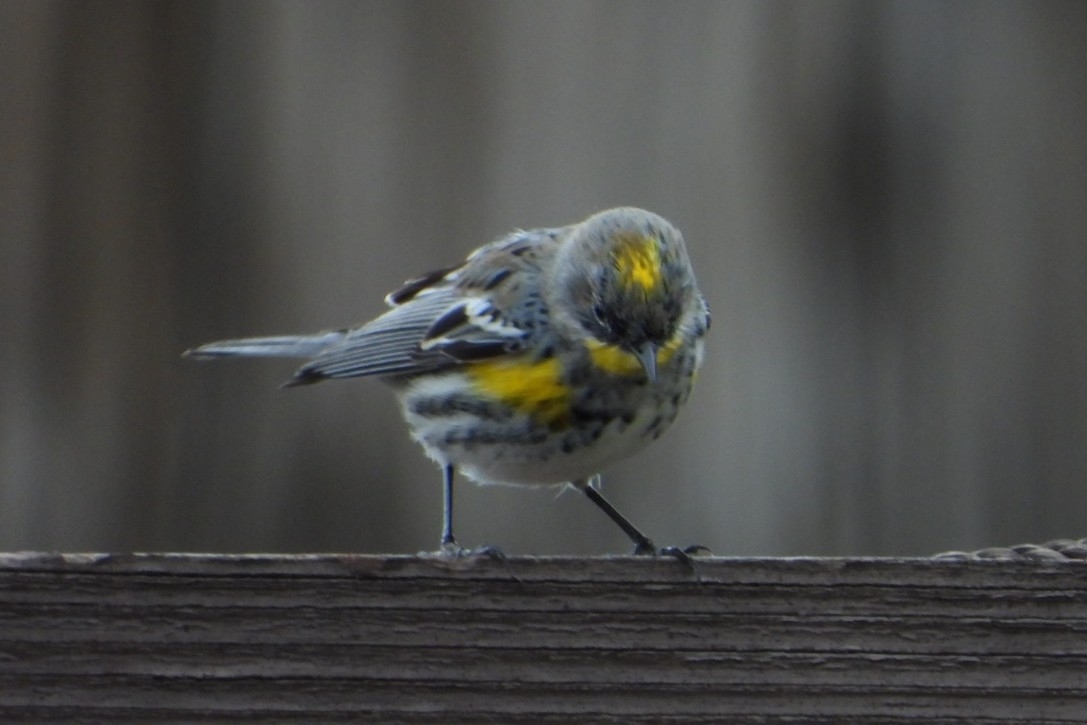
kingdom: Animalia
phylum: Chordata
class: Aves
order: Passeriformes
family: Parulidae
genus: Setophaga
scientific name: Setophaga coronata
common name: Myrtle warbler
